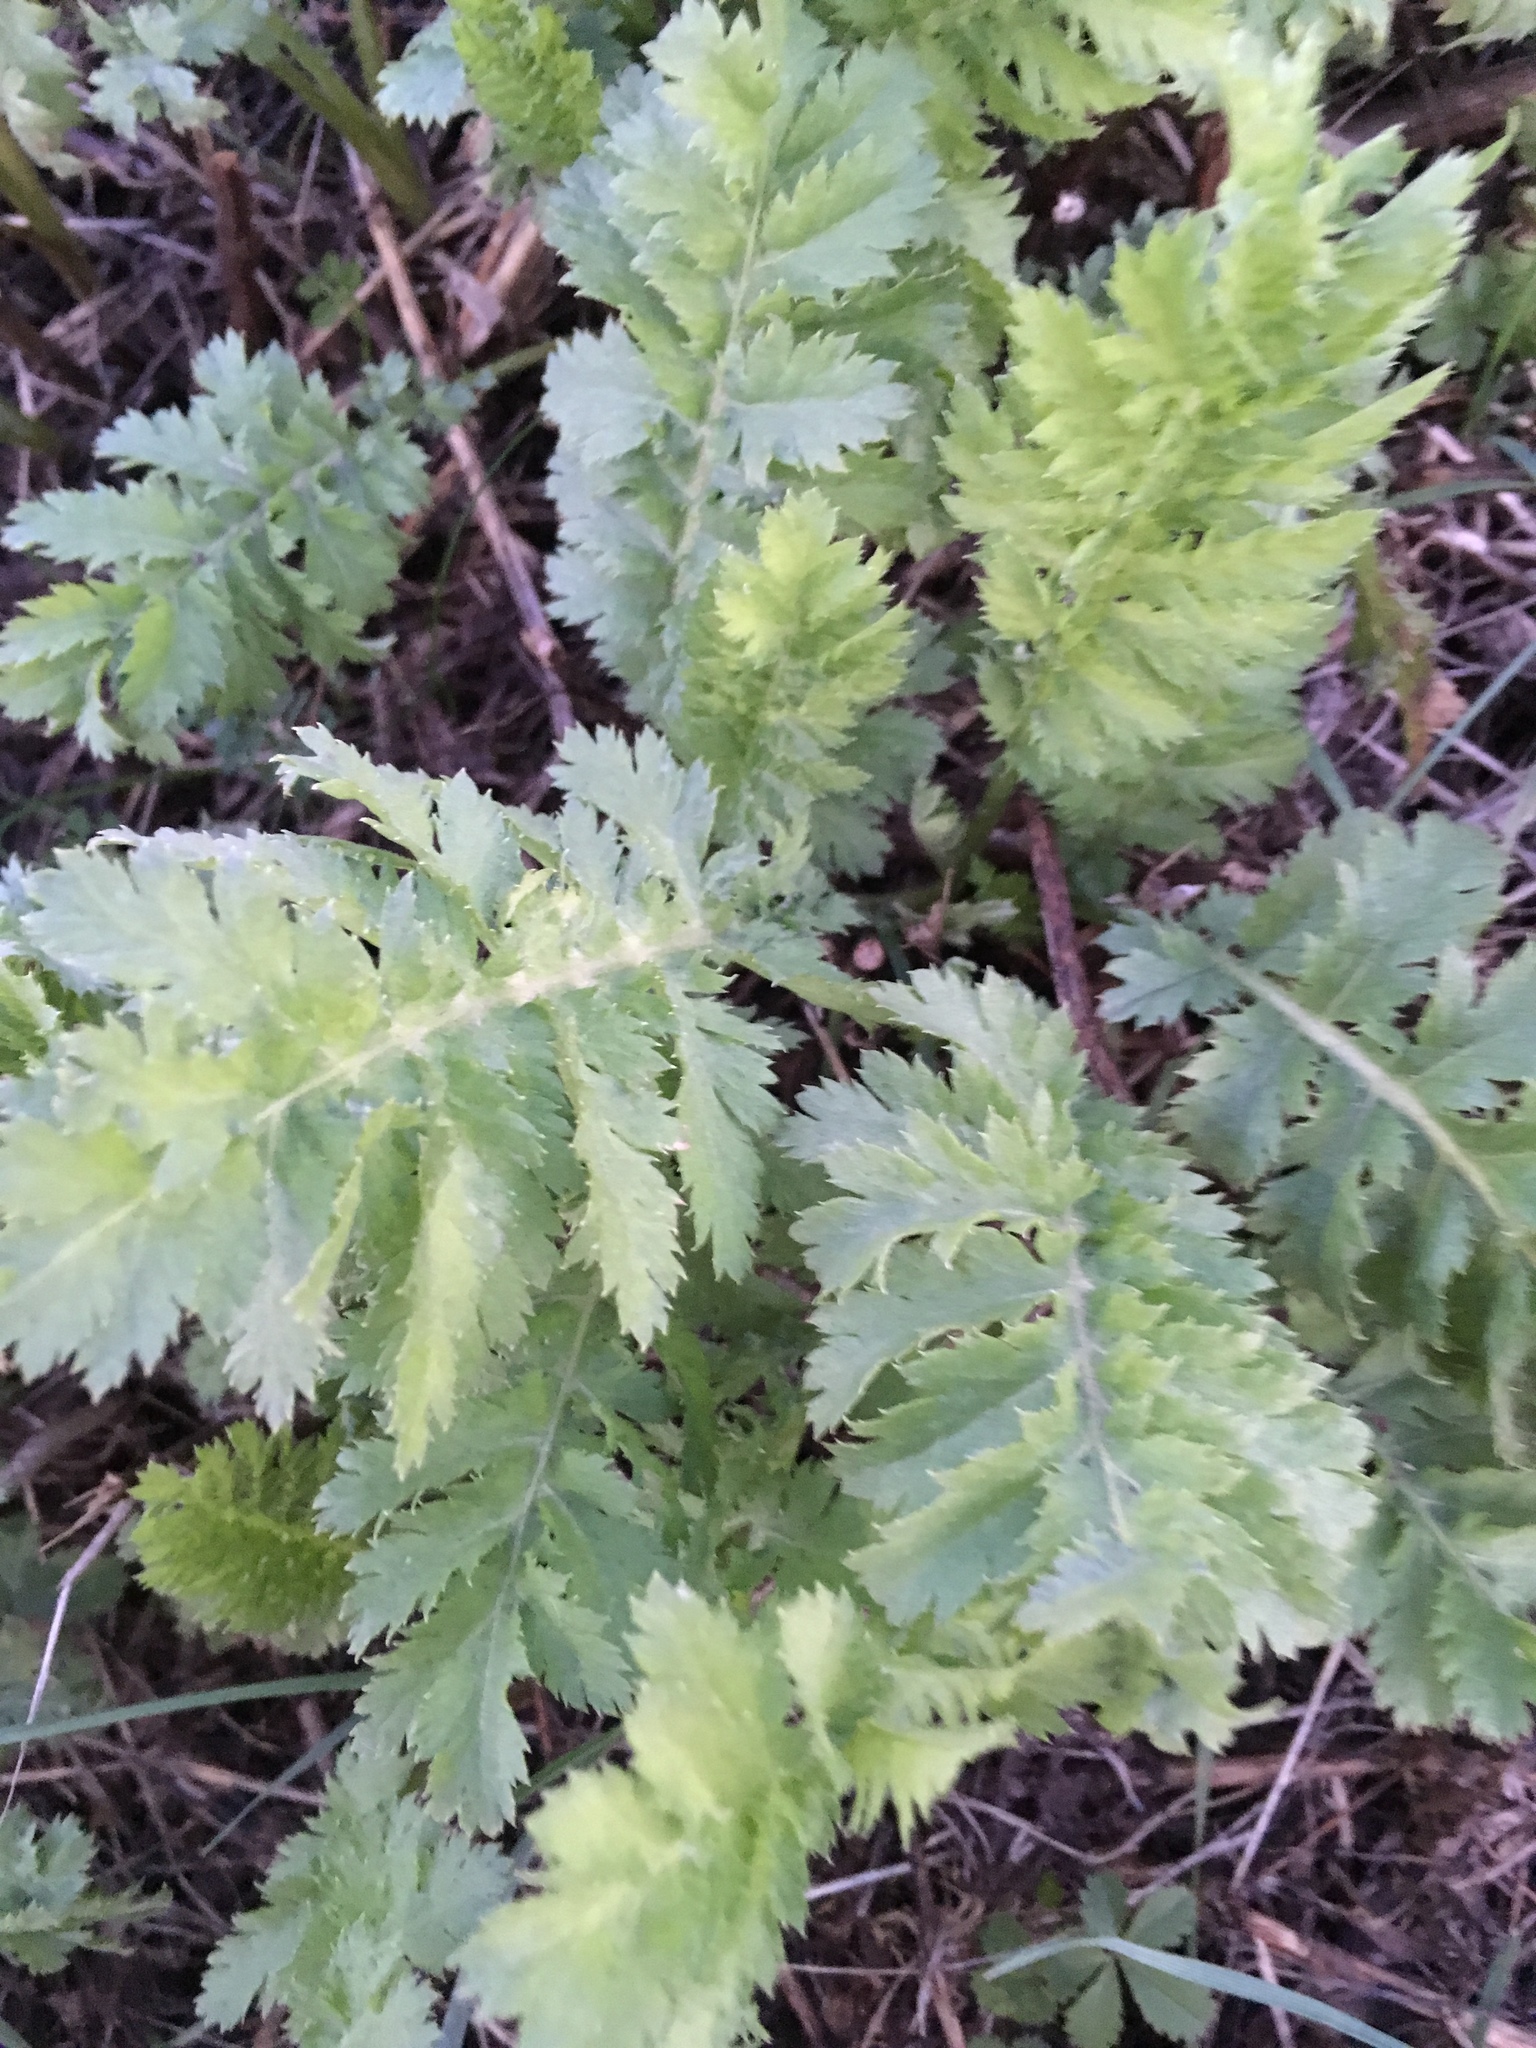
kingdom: Plantae
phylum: Tracheophyta
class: Magnoliopsida
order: Asterales
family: Asteraceae
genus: Tanacetum
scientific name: Tanacetum vulgare
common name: Common tansy
